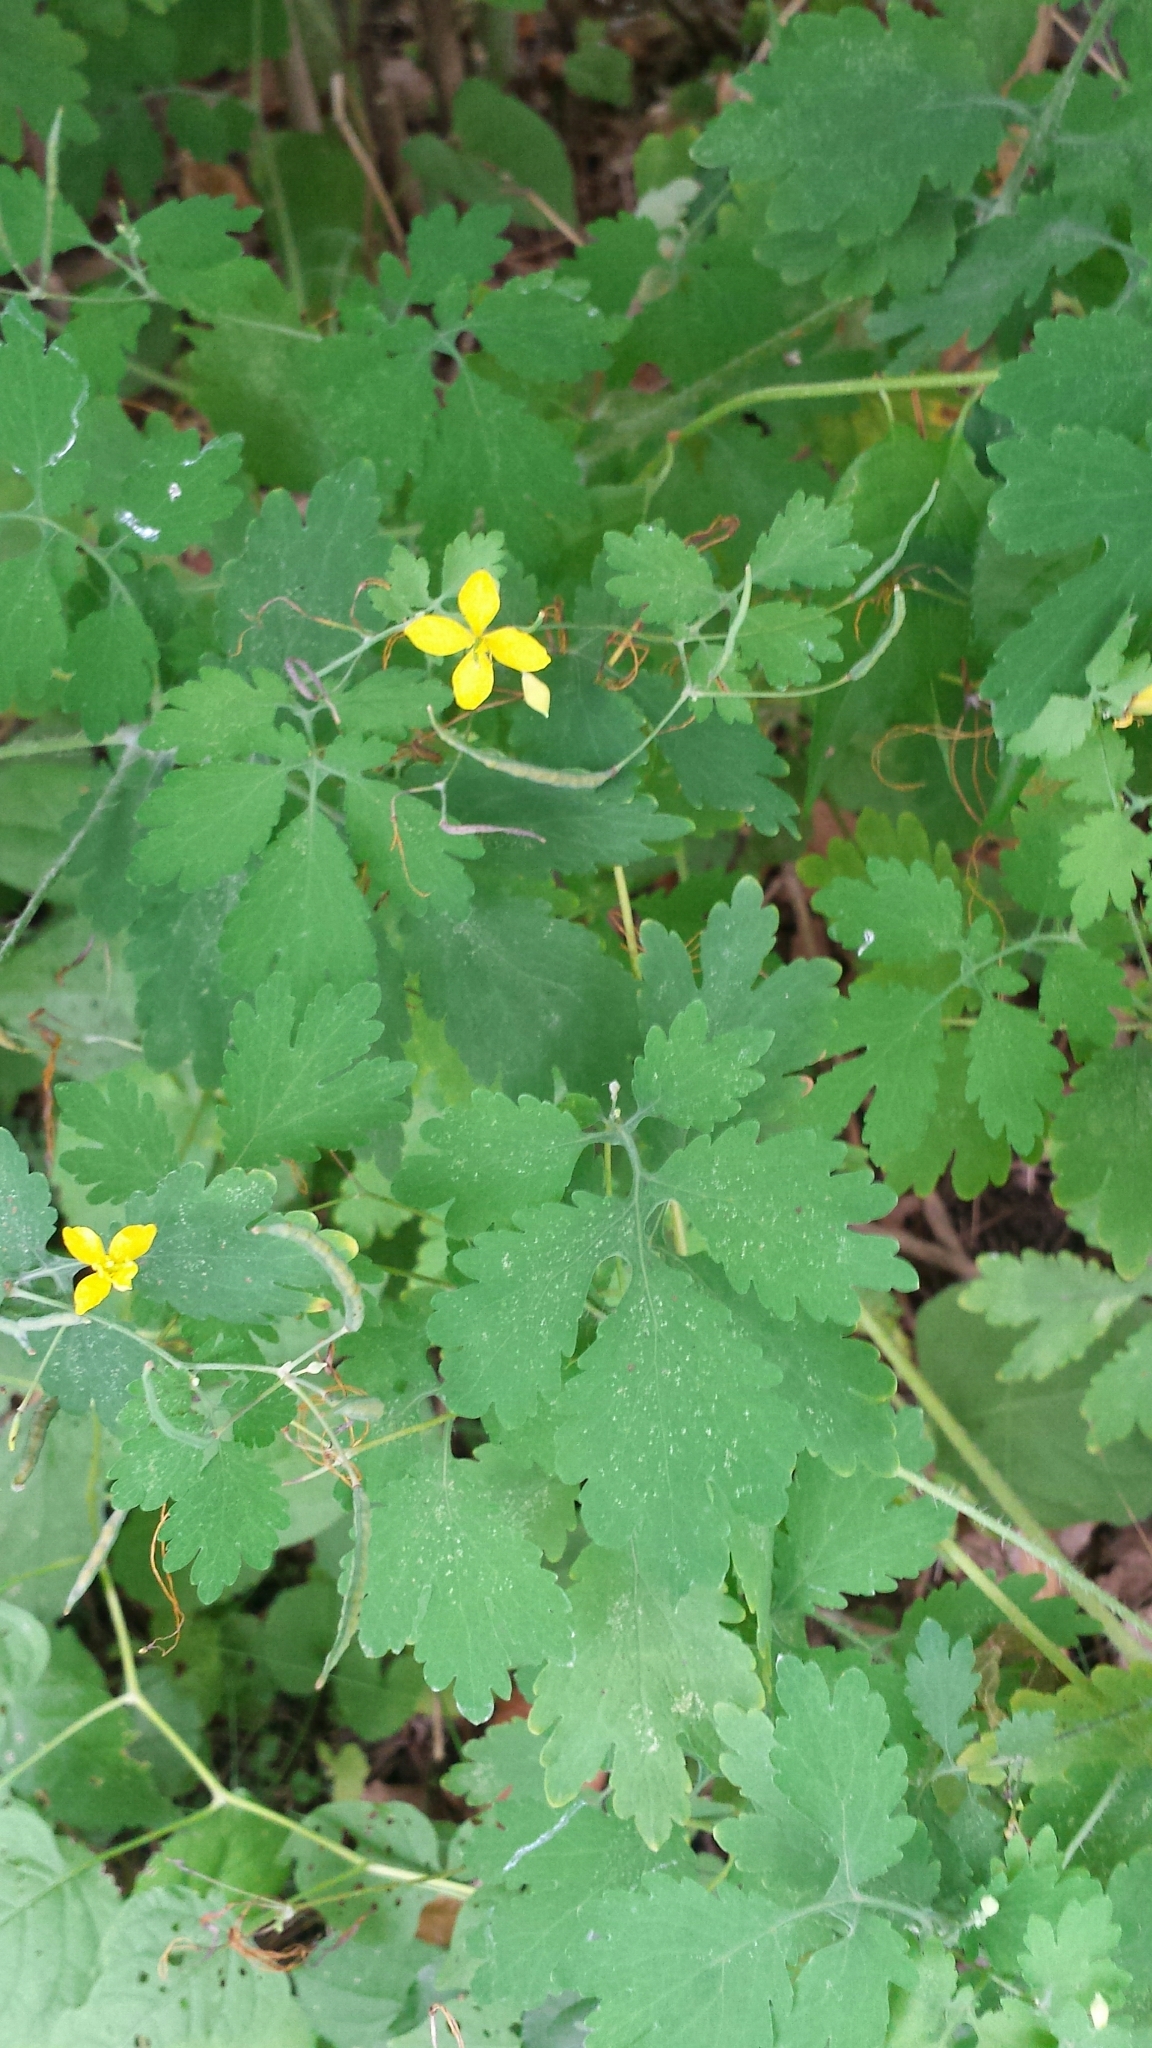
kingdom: Plantae
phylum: Tracheophyta
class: Magnoliopsida
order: Ranunculales
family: Papaveraceae
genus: Chelidonium
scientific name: Chelidonium majus
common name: Greater celandine
